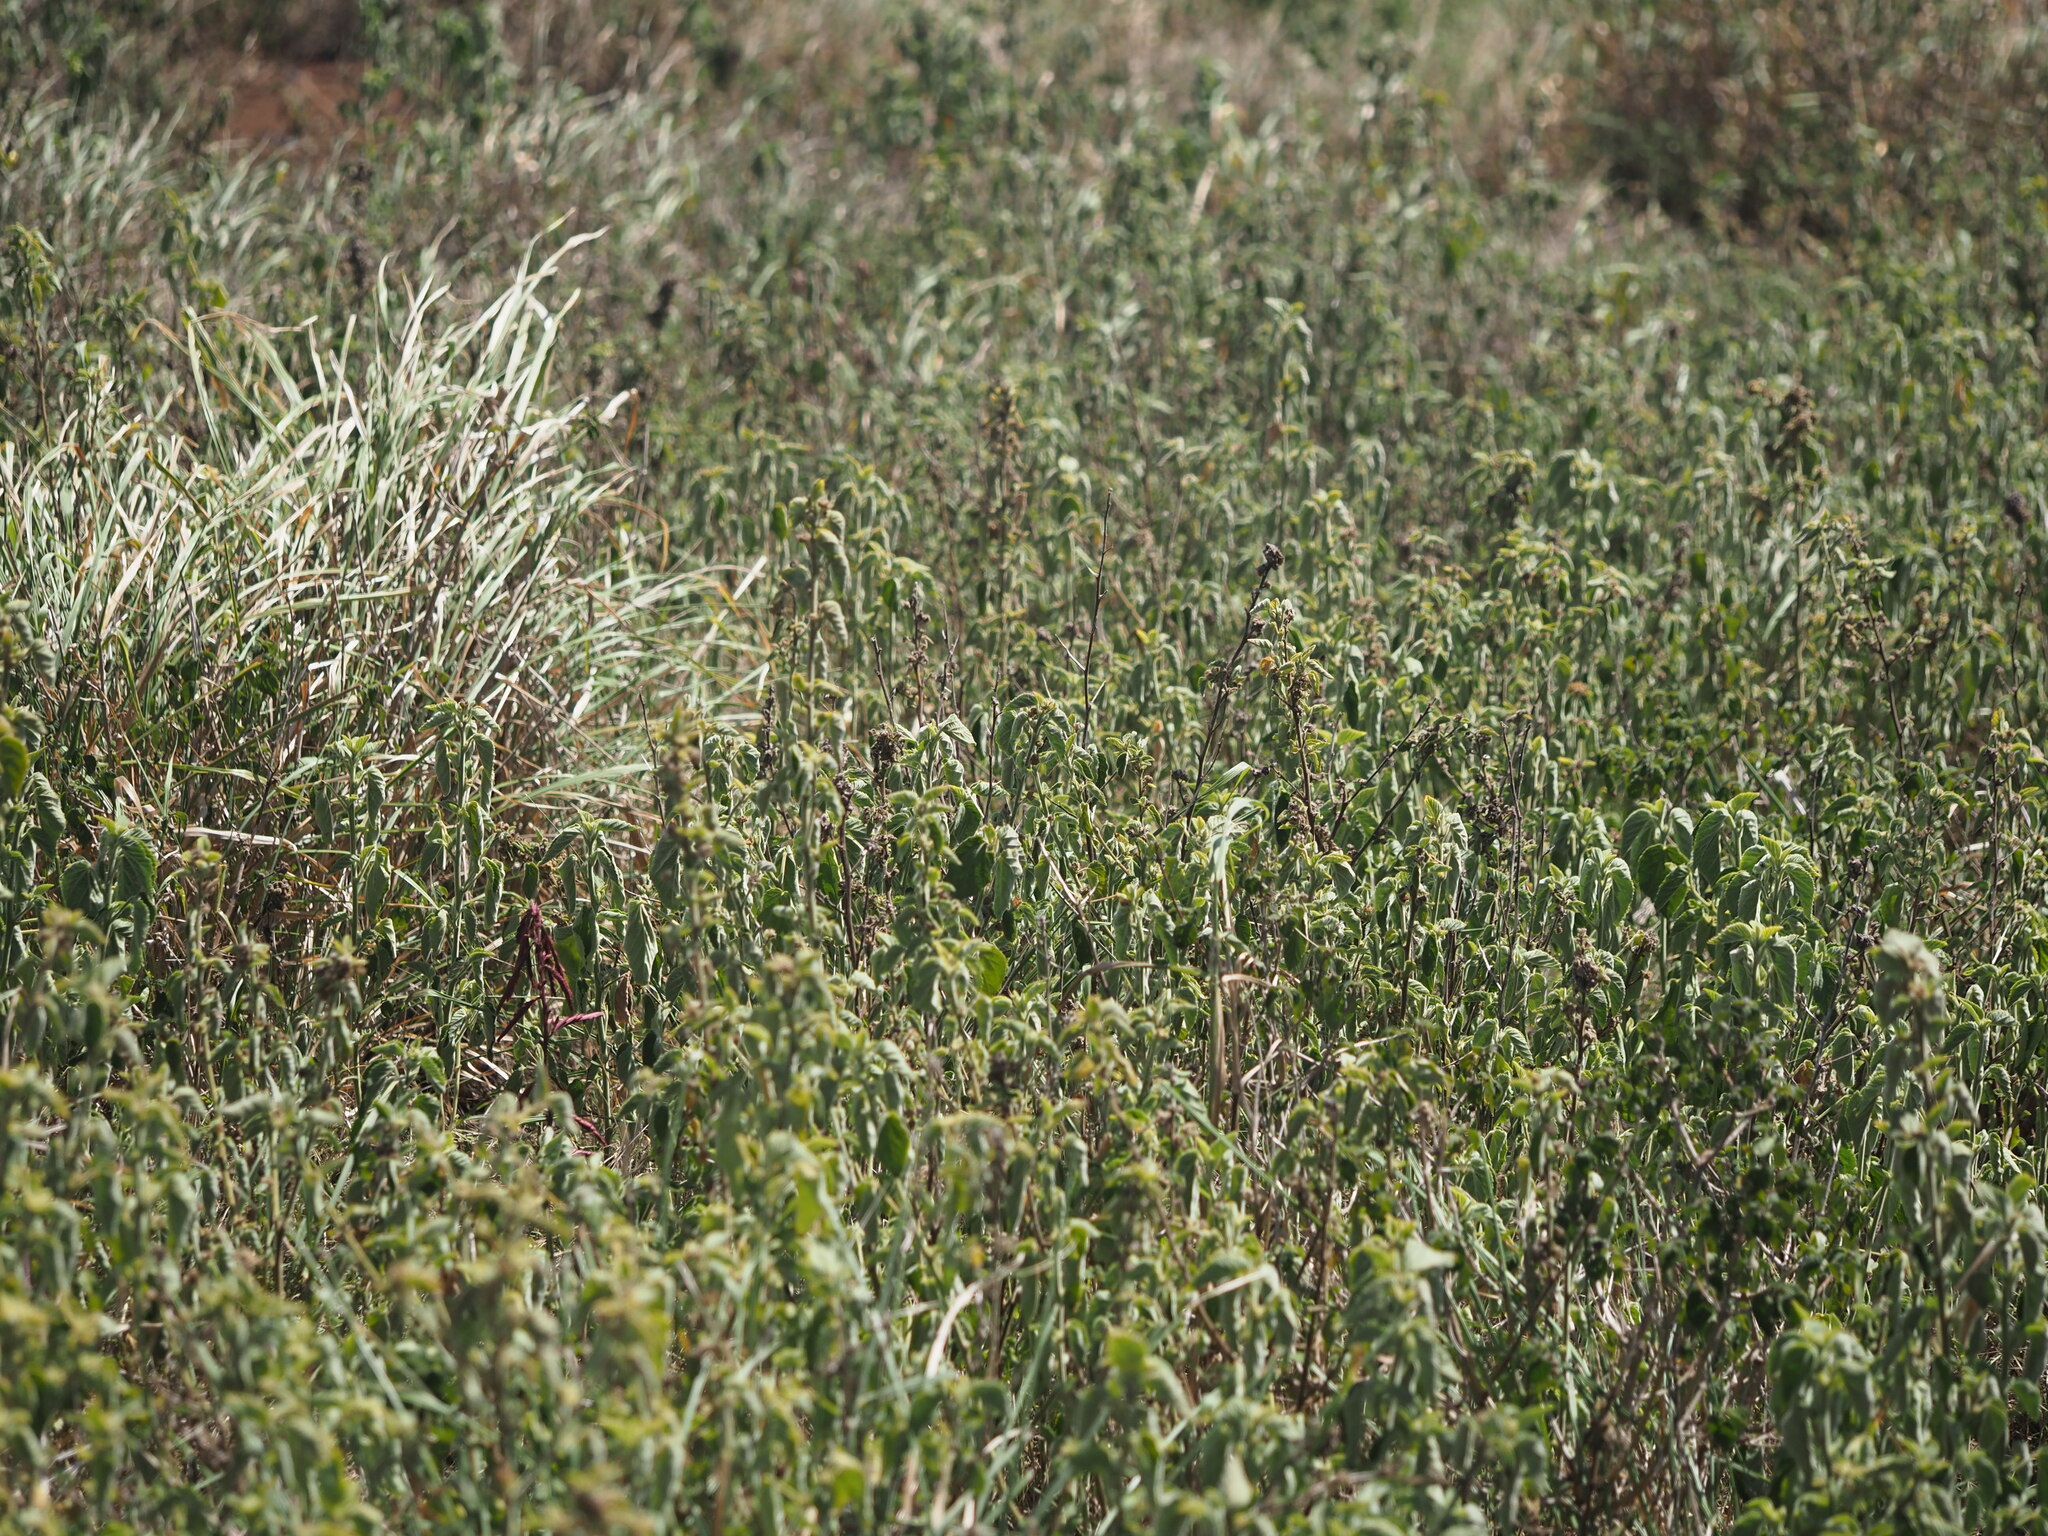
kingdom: Plantae
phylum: Tracheophyta
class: Magnoliopsida
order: Malvales
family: Malvaceae
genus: Sida
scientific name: Sida cordifolia
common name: Ilima
